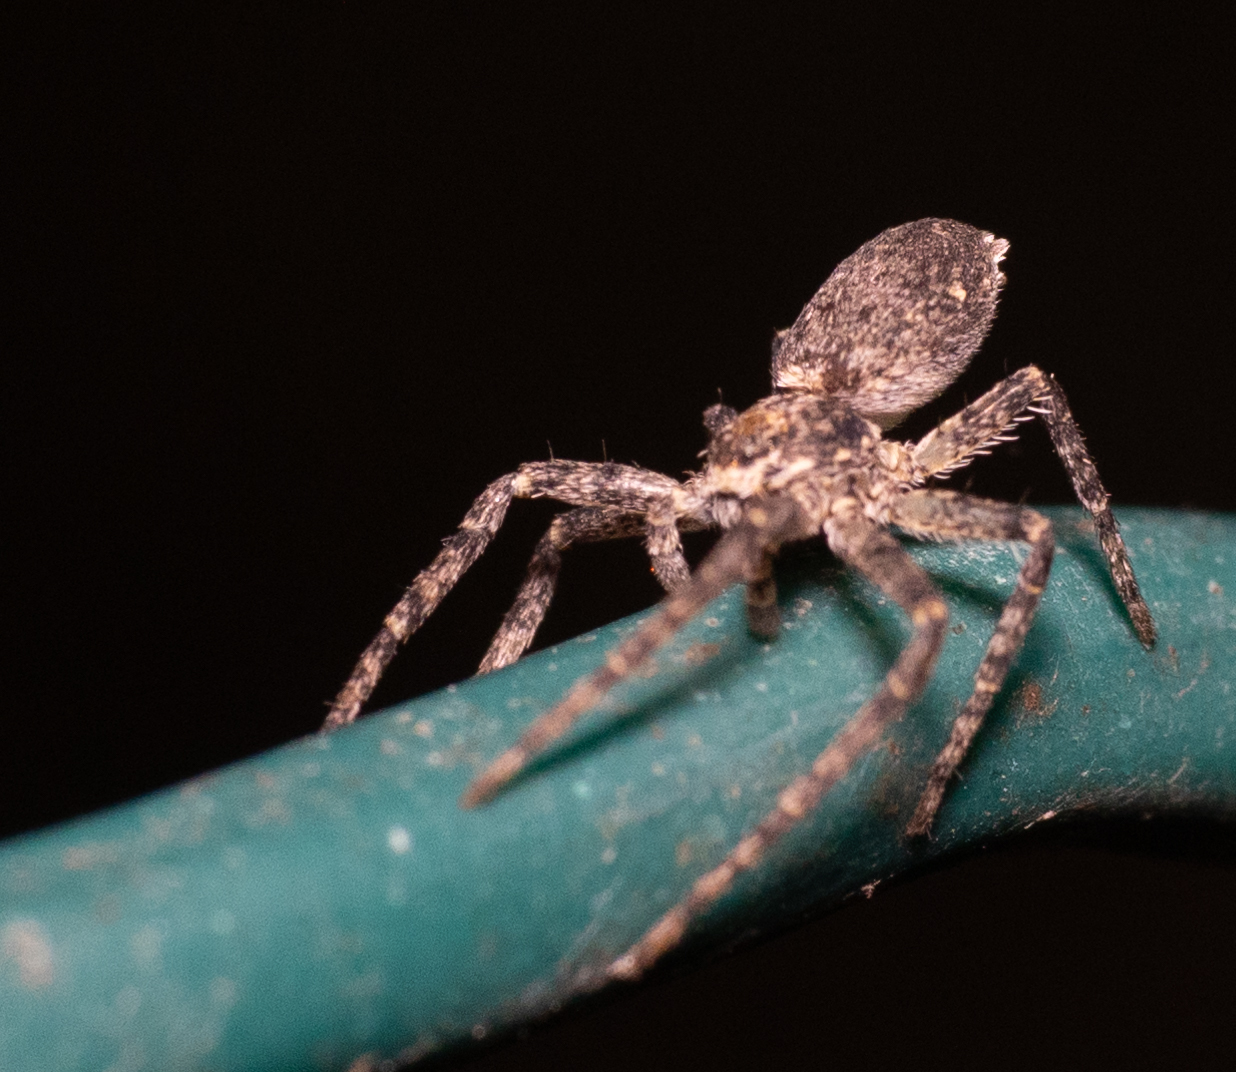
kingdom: Animalia
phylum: Arthropoda
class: Arachnida
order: Araneae
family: Philodromidae
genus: Philodromus
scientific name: Philodromus
